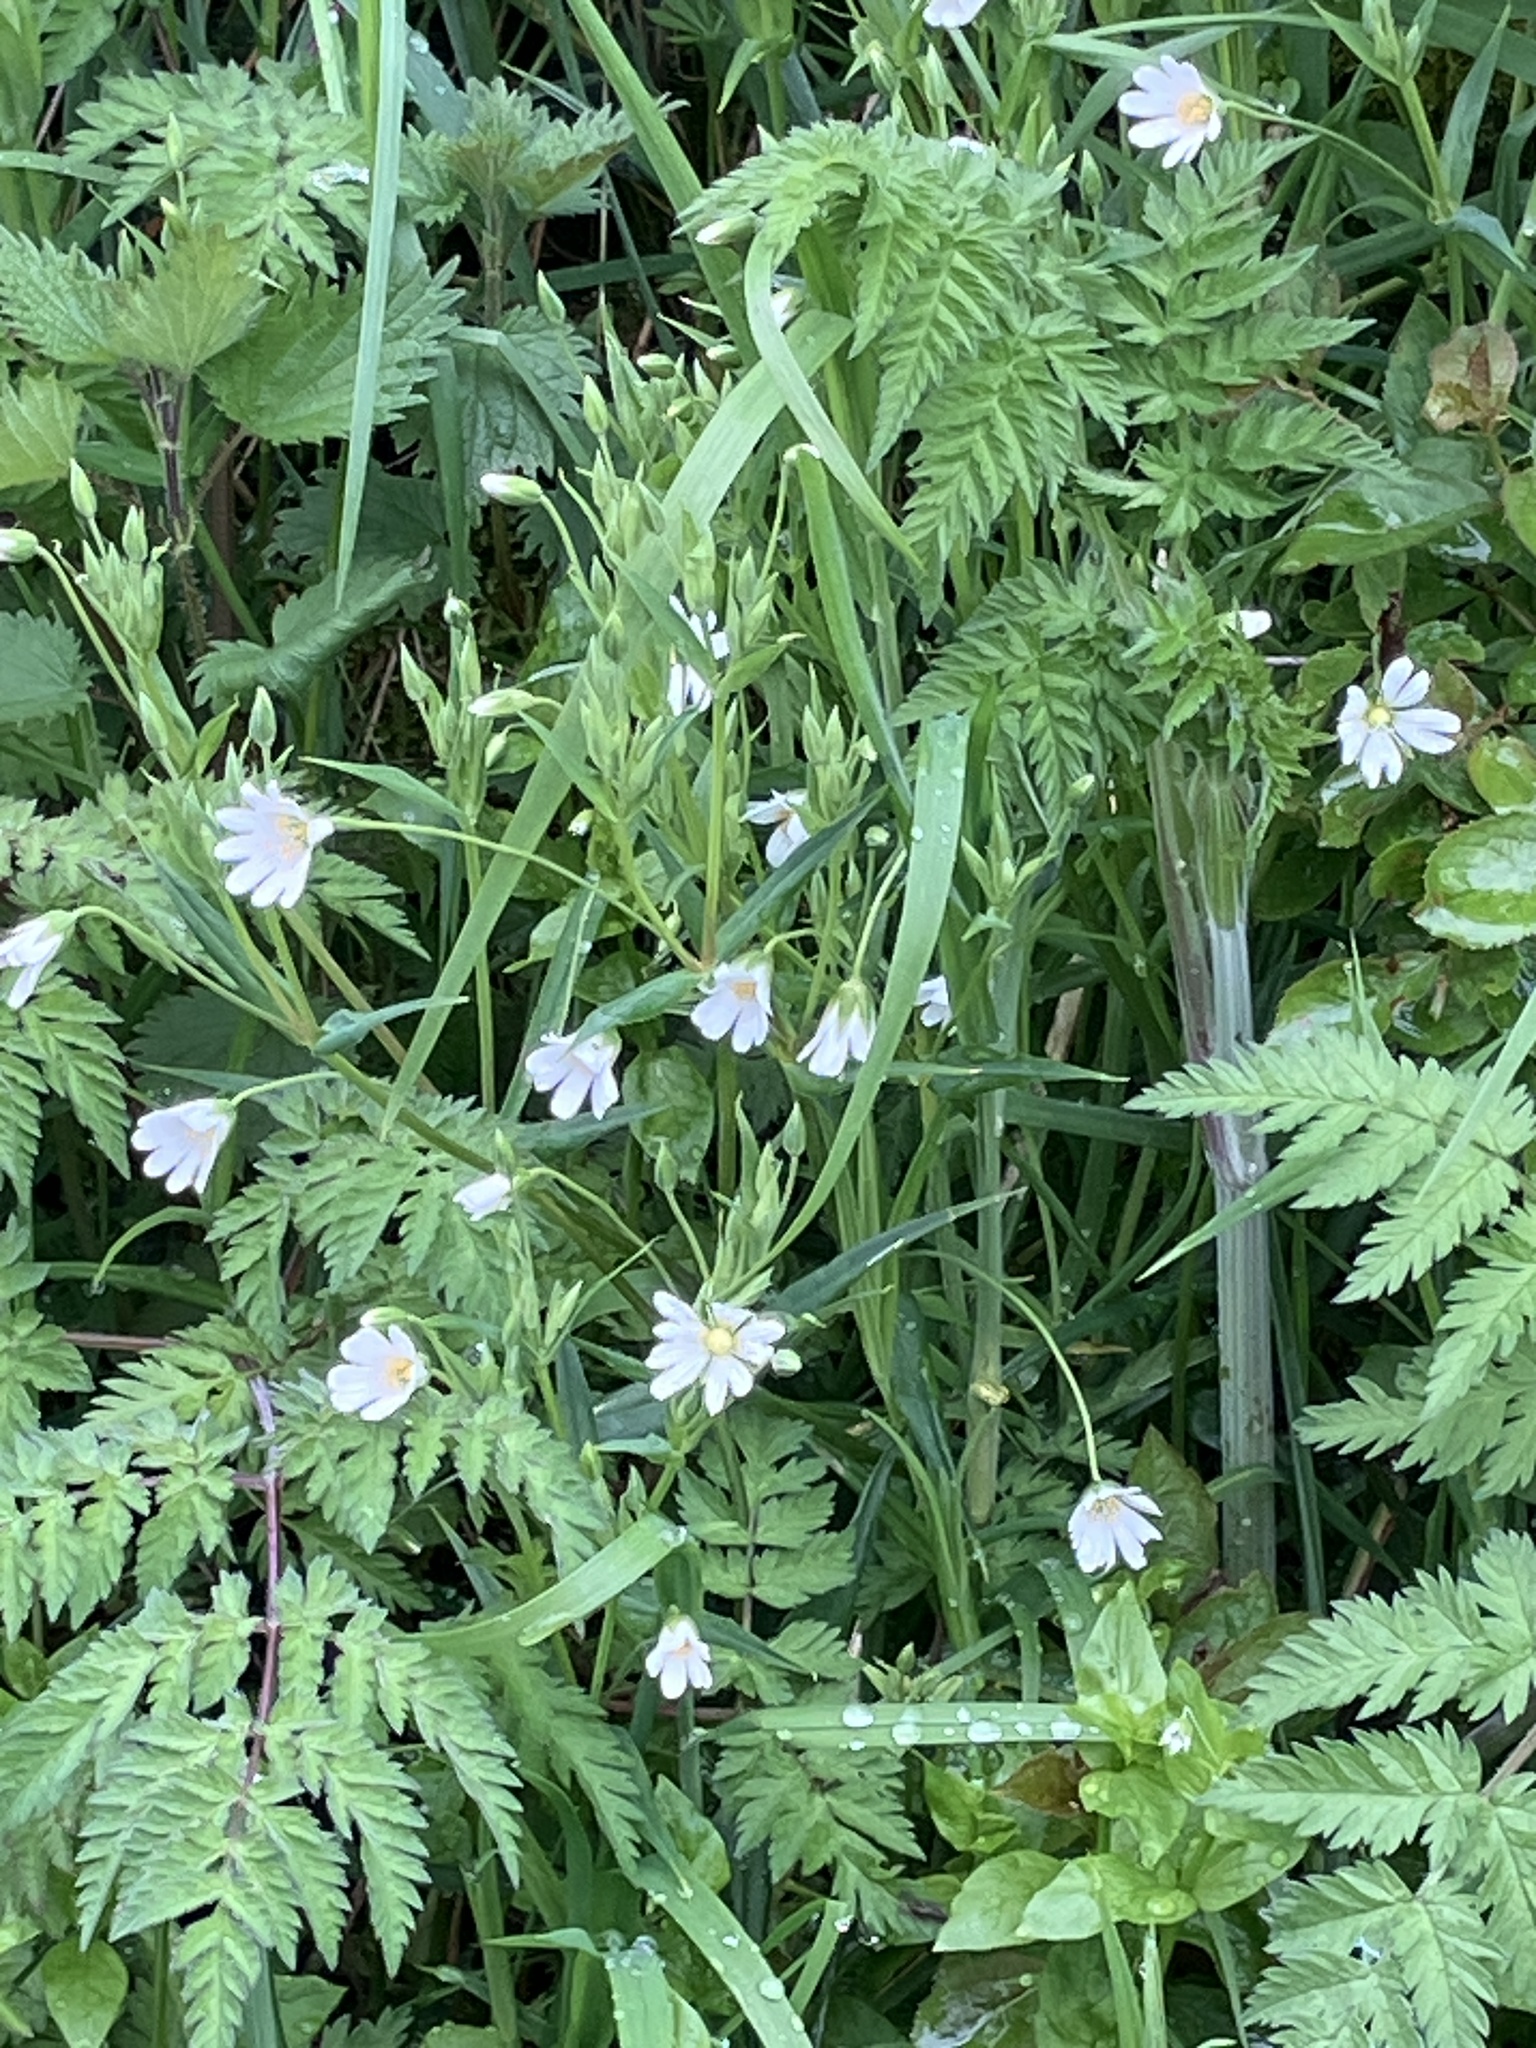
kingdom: Plantae
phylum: Tracheophyta
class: Magnoliopsida
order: Caryophyllales
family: Caryophyllaceae
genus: Rabelera
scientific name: Rabelera holostea
